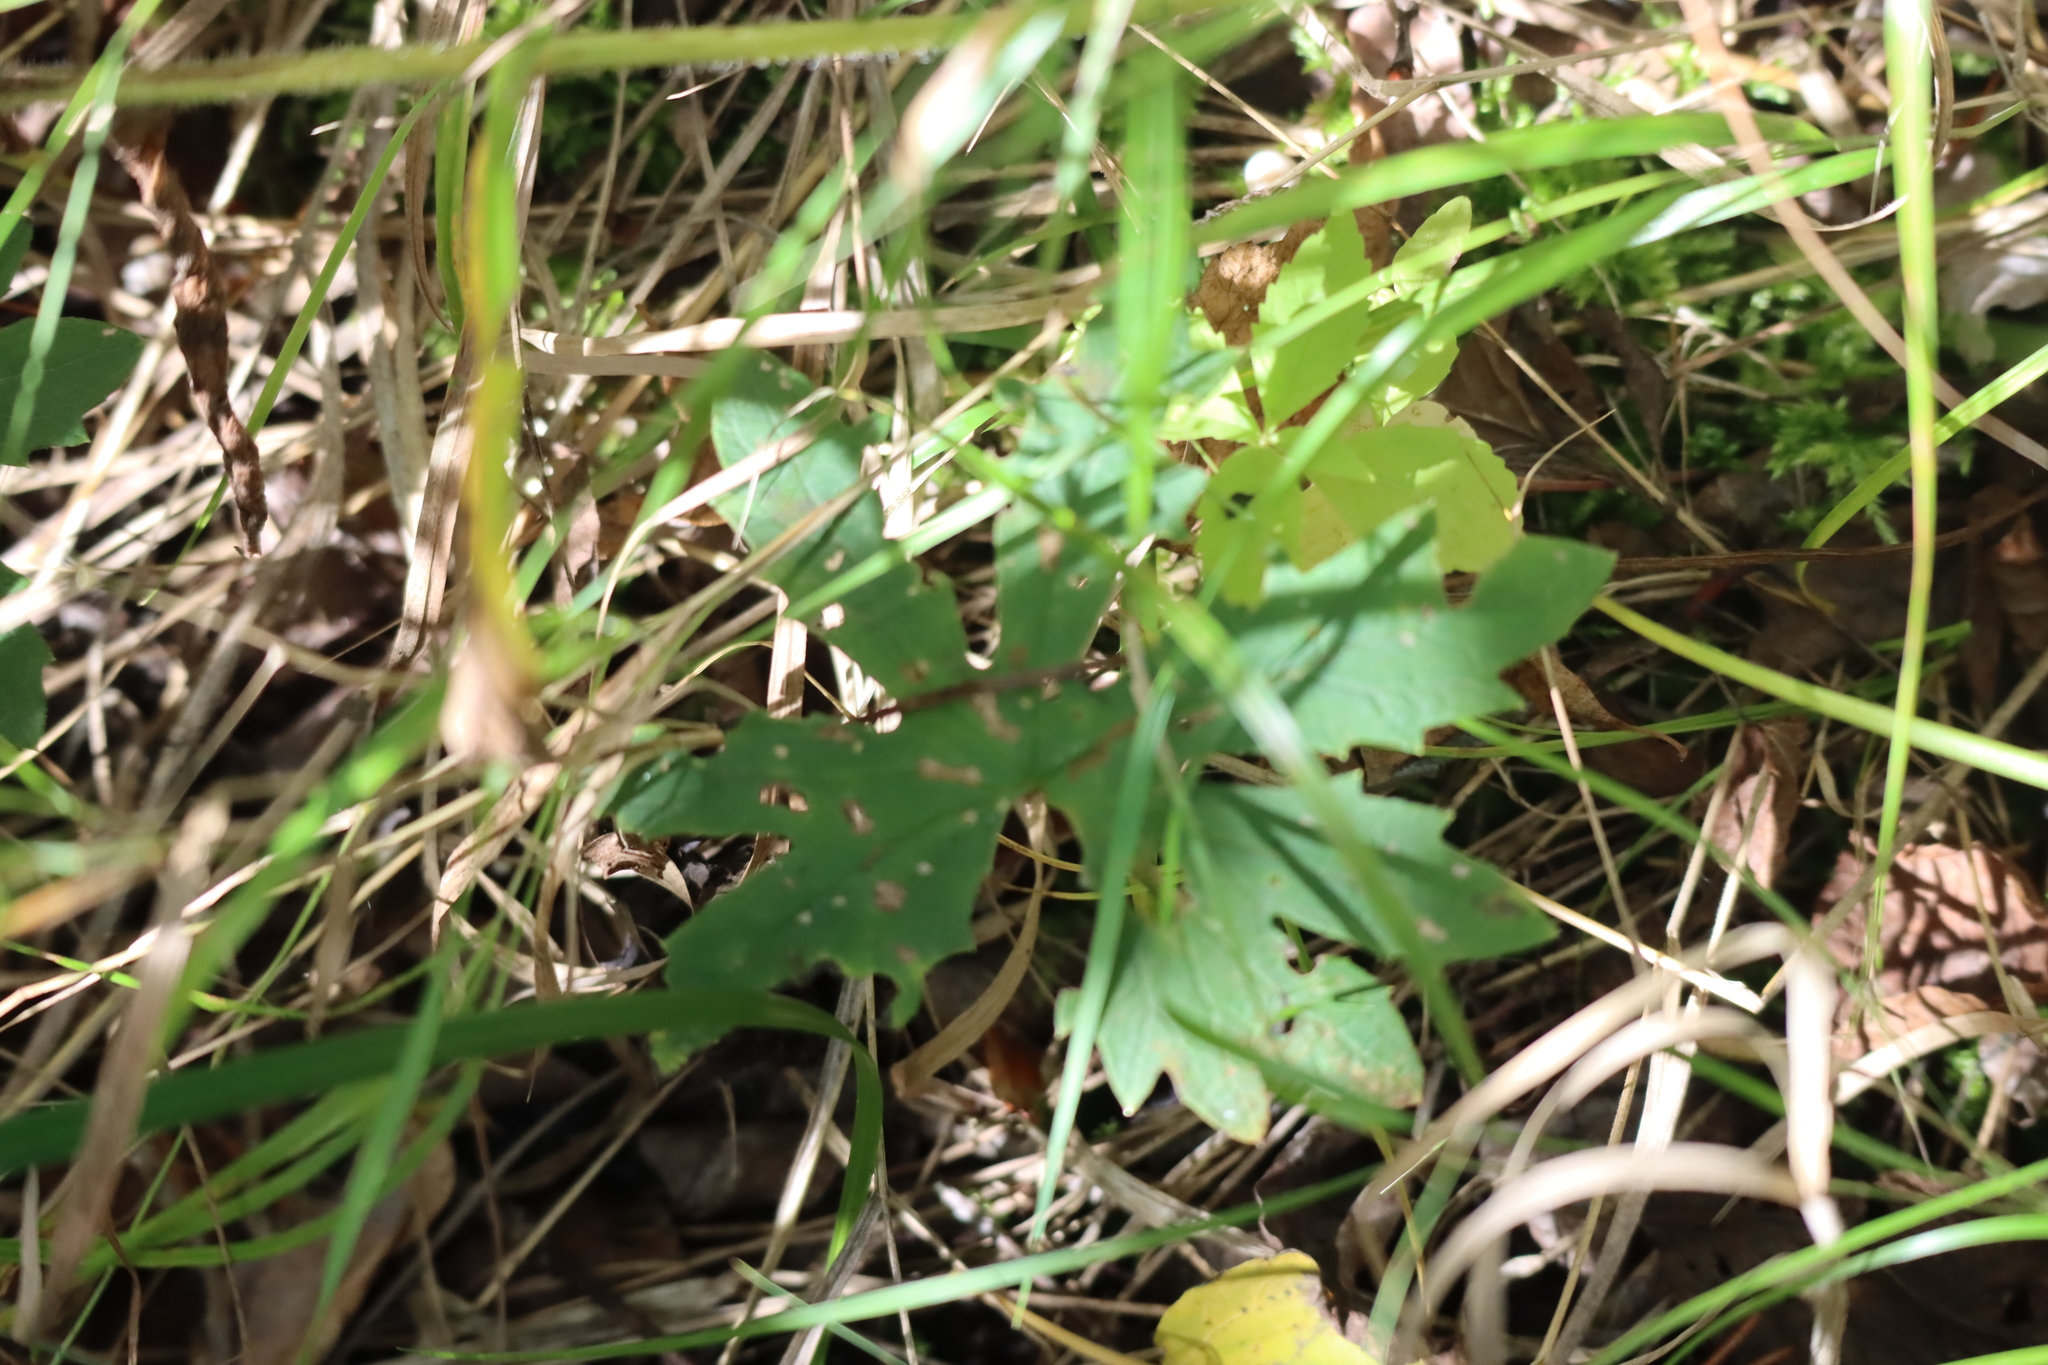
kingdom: Plantae
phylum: Tracheophyta
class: Magnoliopsida
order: Asterales
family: Asteraceae
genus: Petasites
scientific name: Petasites frigidus
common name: Arctic butterbur
